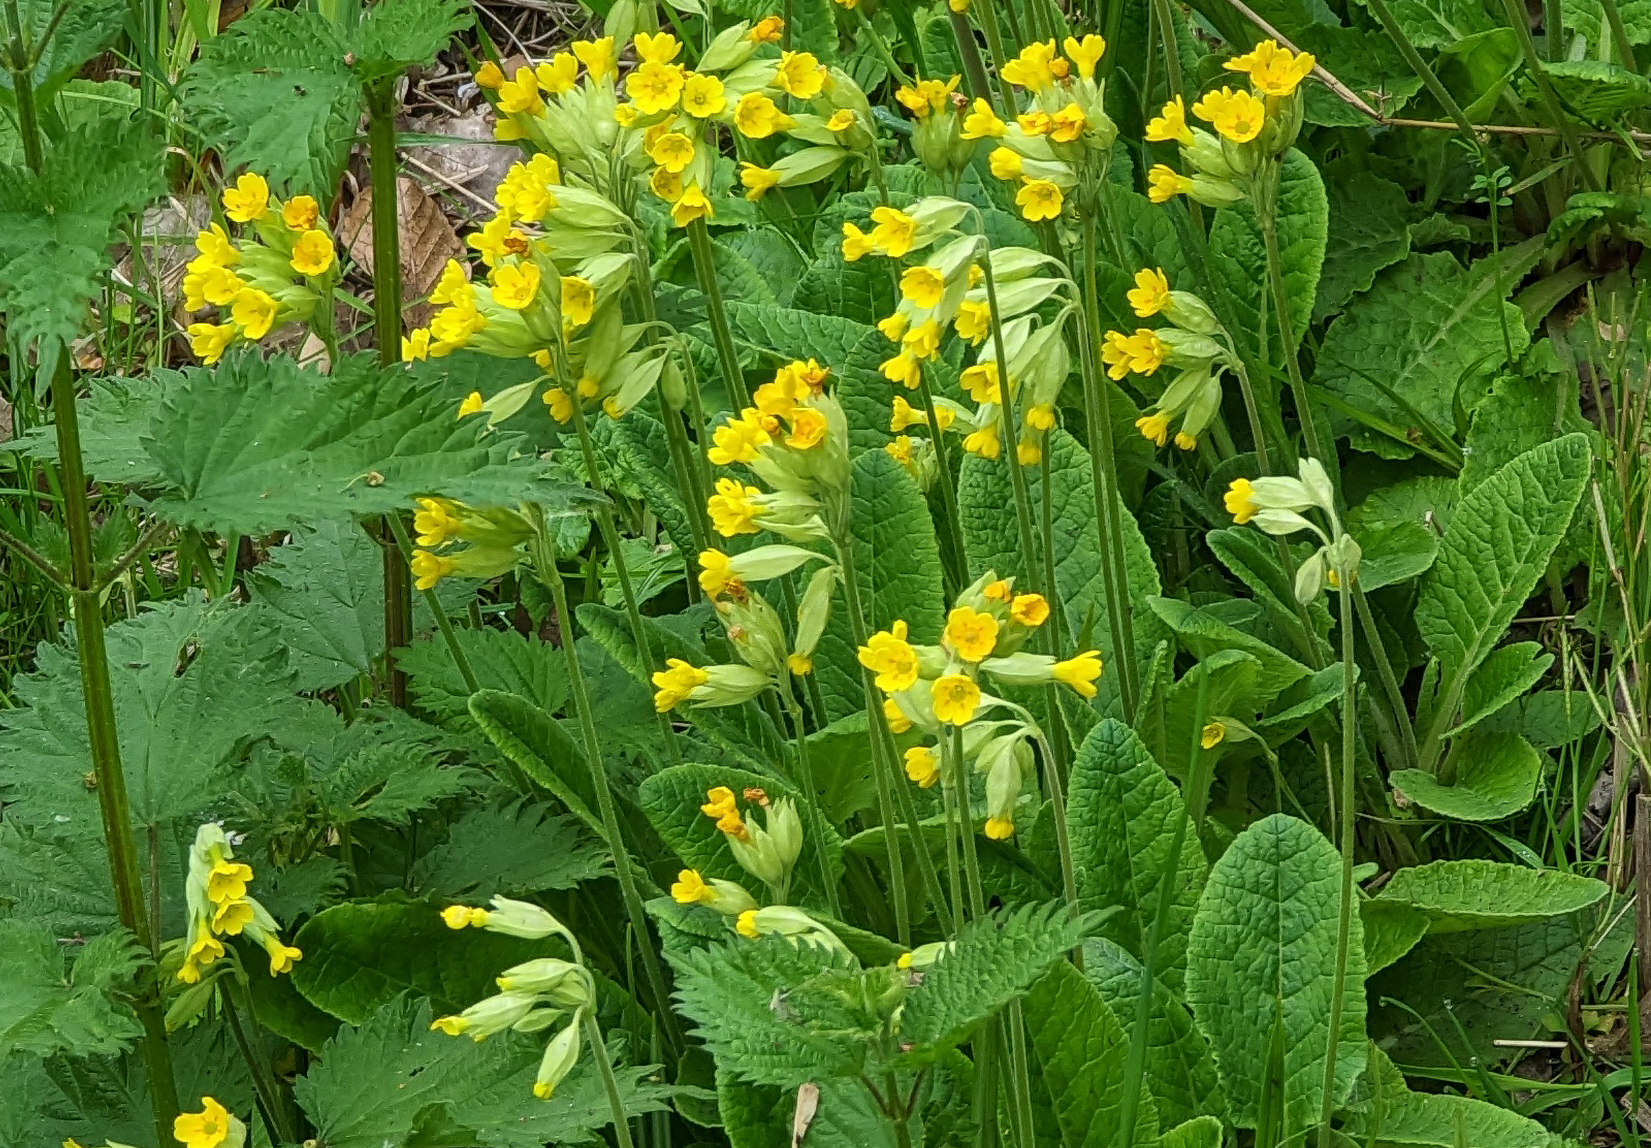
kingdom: Plantae
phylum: Tracheophyta
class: Magnoliopsida
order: Ericales
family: Primulaceae
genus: Primula
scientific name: Primula veris
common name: Cowslip
